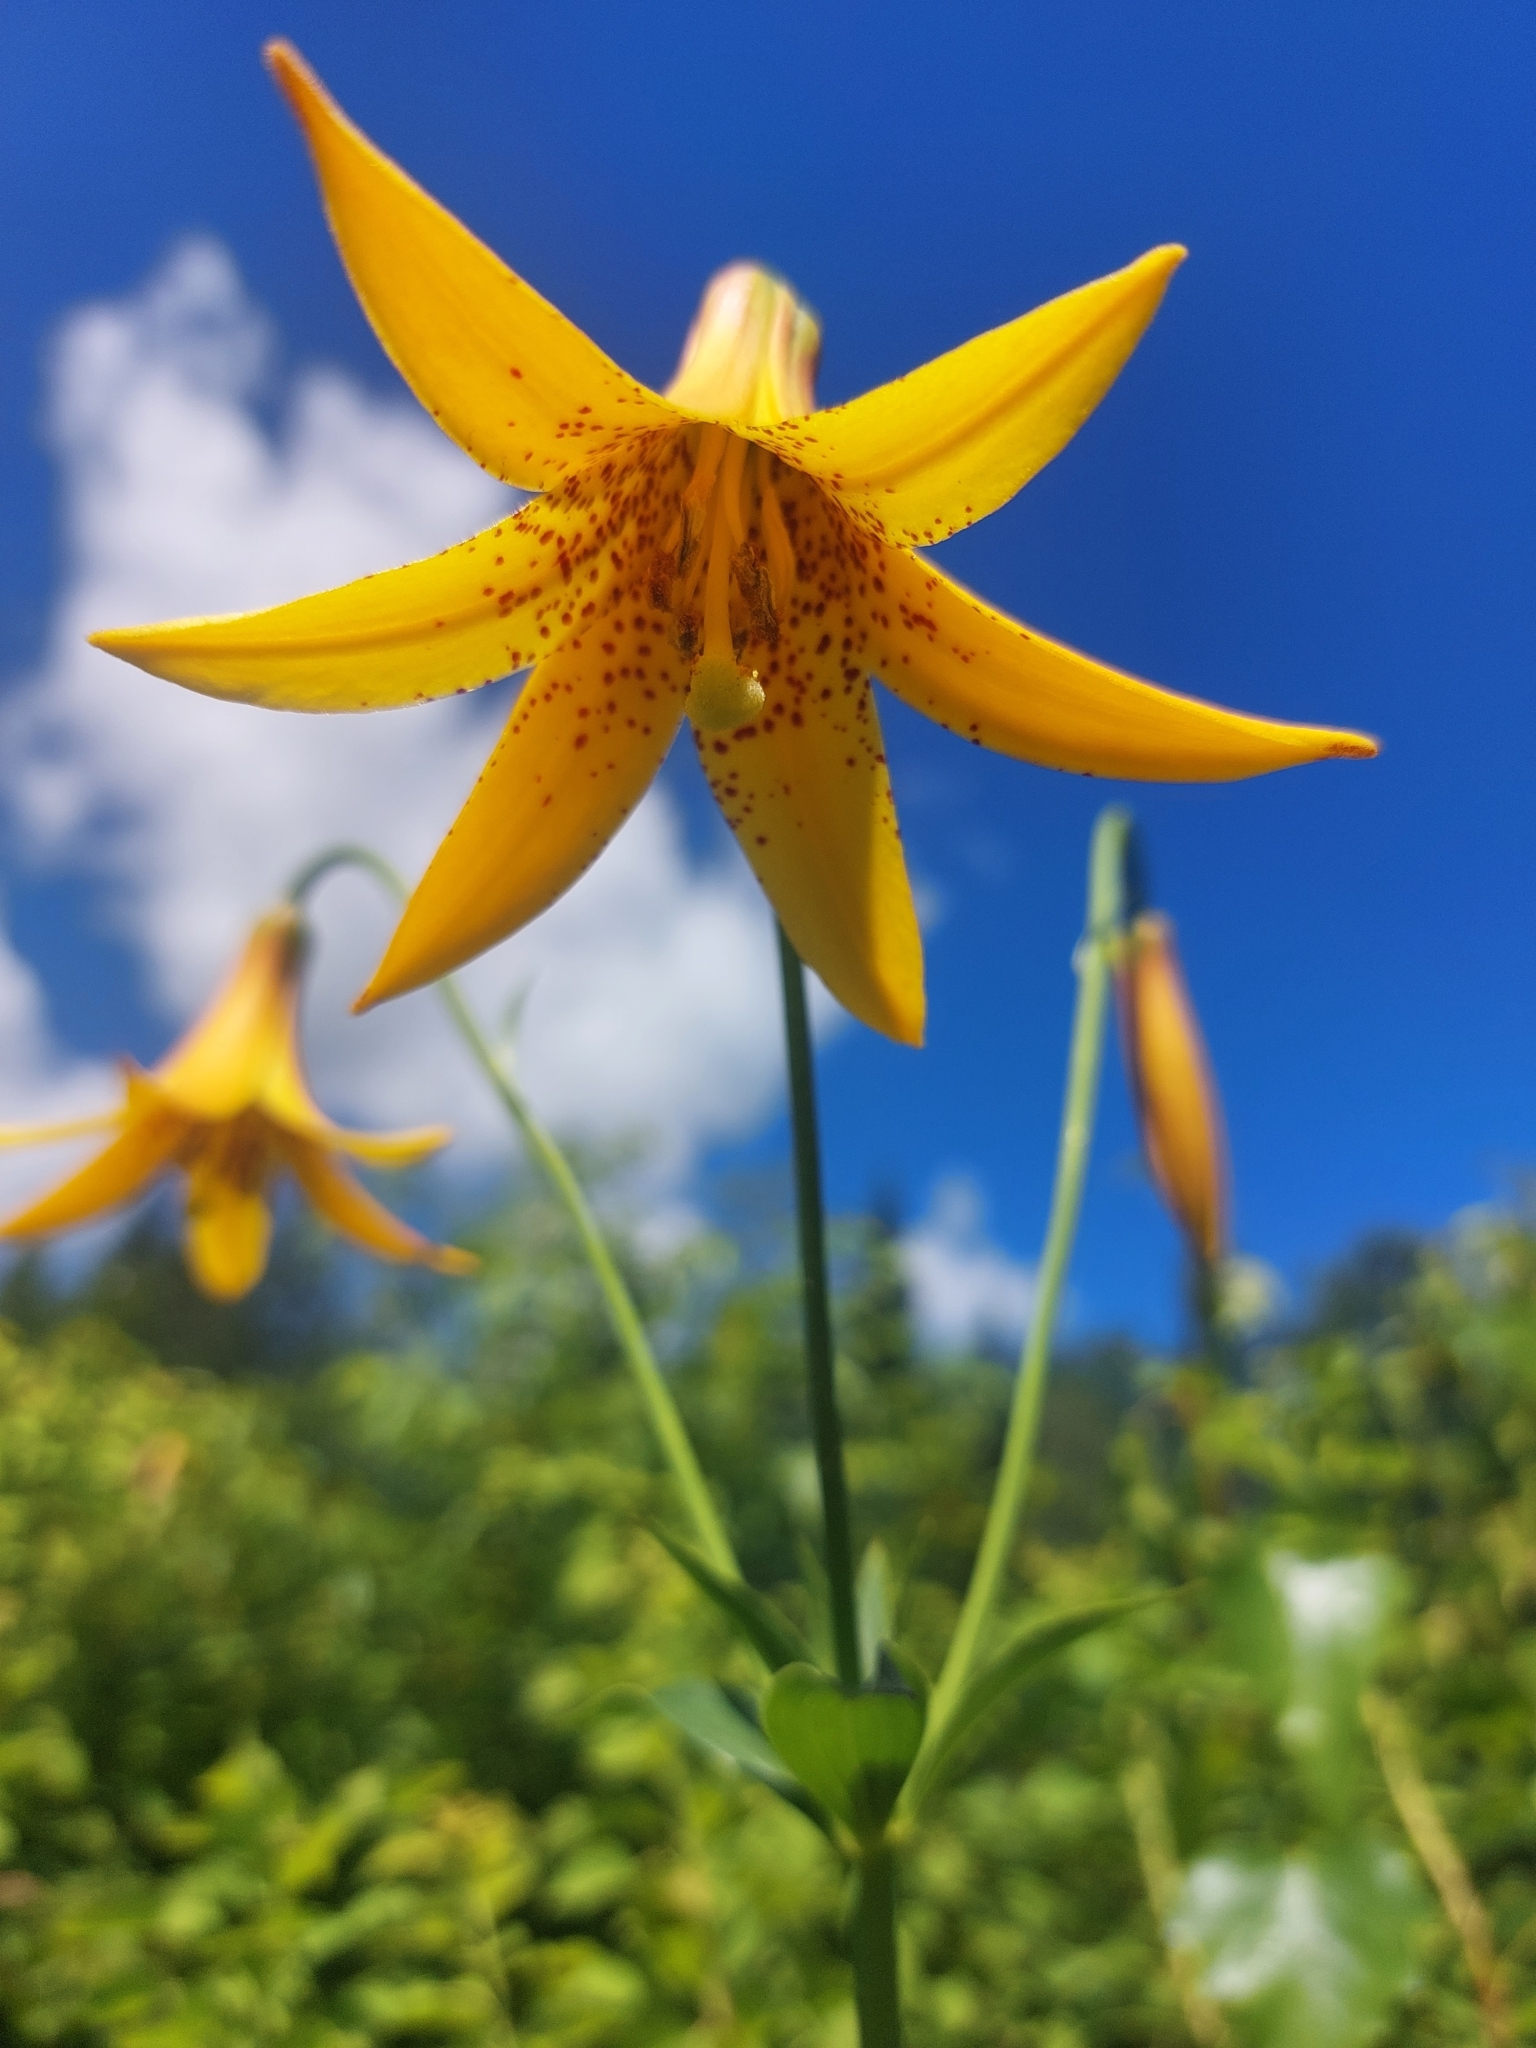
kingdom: Plantae
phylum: Tracheophyta
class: Liliopsida
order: Liliales
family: Liliaceae
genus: Lilium
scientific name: Lilium canadense
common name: Canada lily
